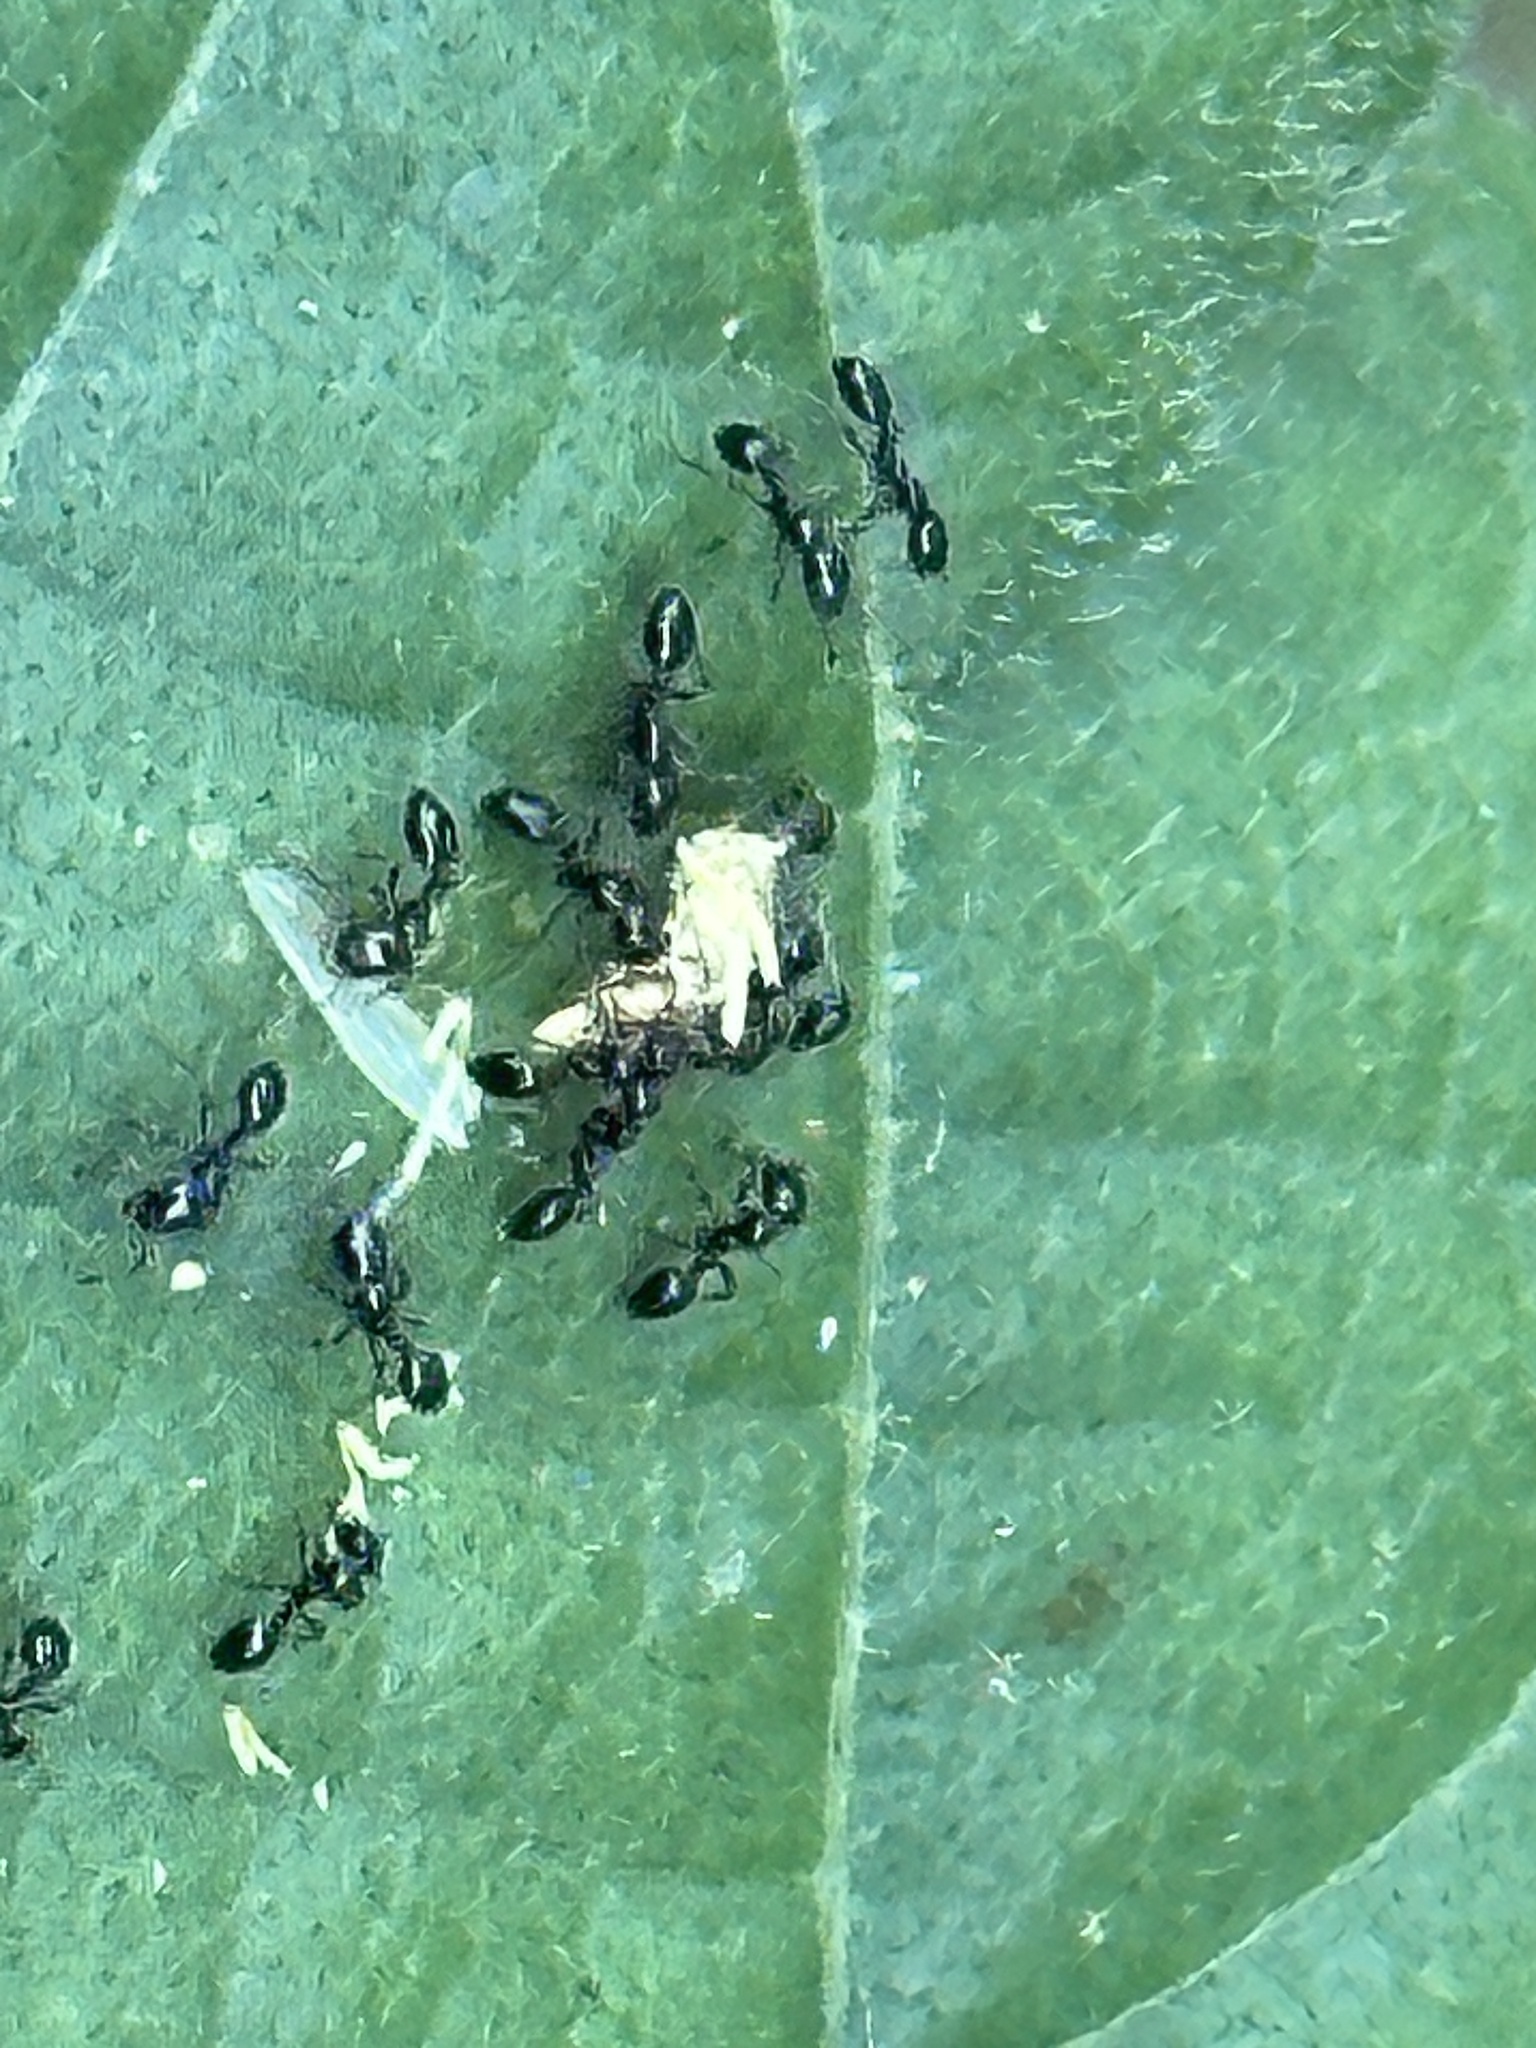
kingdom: Animalia
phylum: Arthropoda
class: Insecta
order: Hymenoptera
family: Formicidae
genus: Monomorium
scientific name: Monomorium minimum
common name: Little black ant
